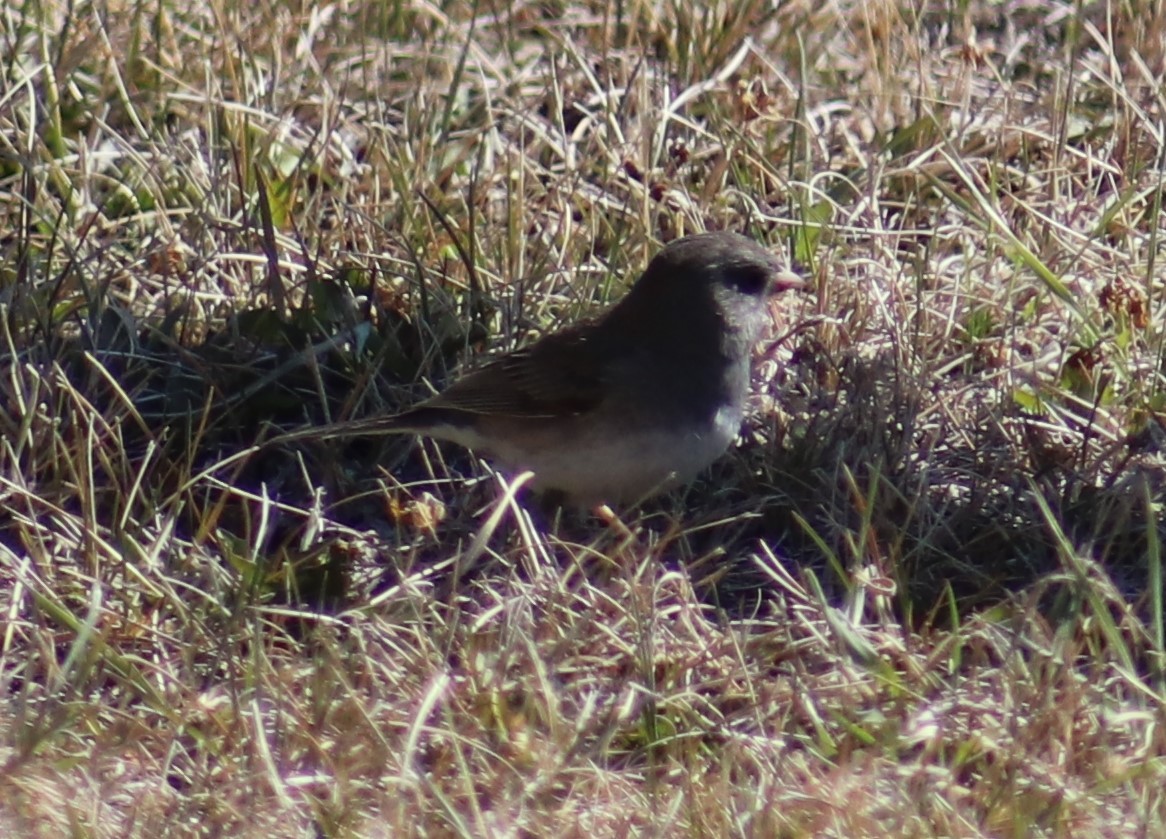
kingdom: Animalia
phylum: Chordata
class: Aves
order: Passeriformes
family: Passerellidae
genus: Junco
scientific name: Junco hyemalis
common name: Dark-eyed junco
